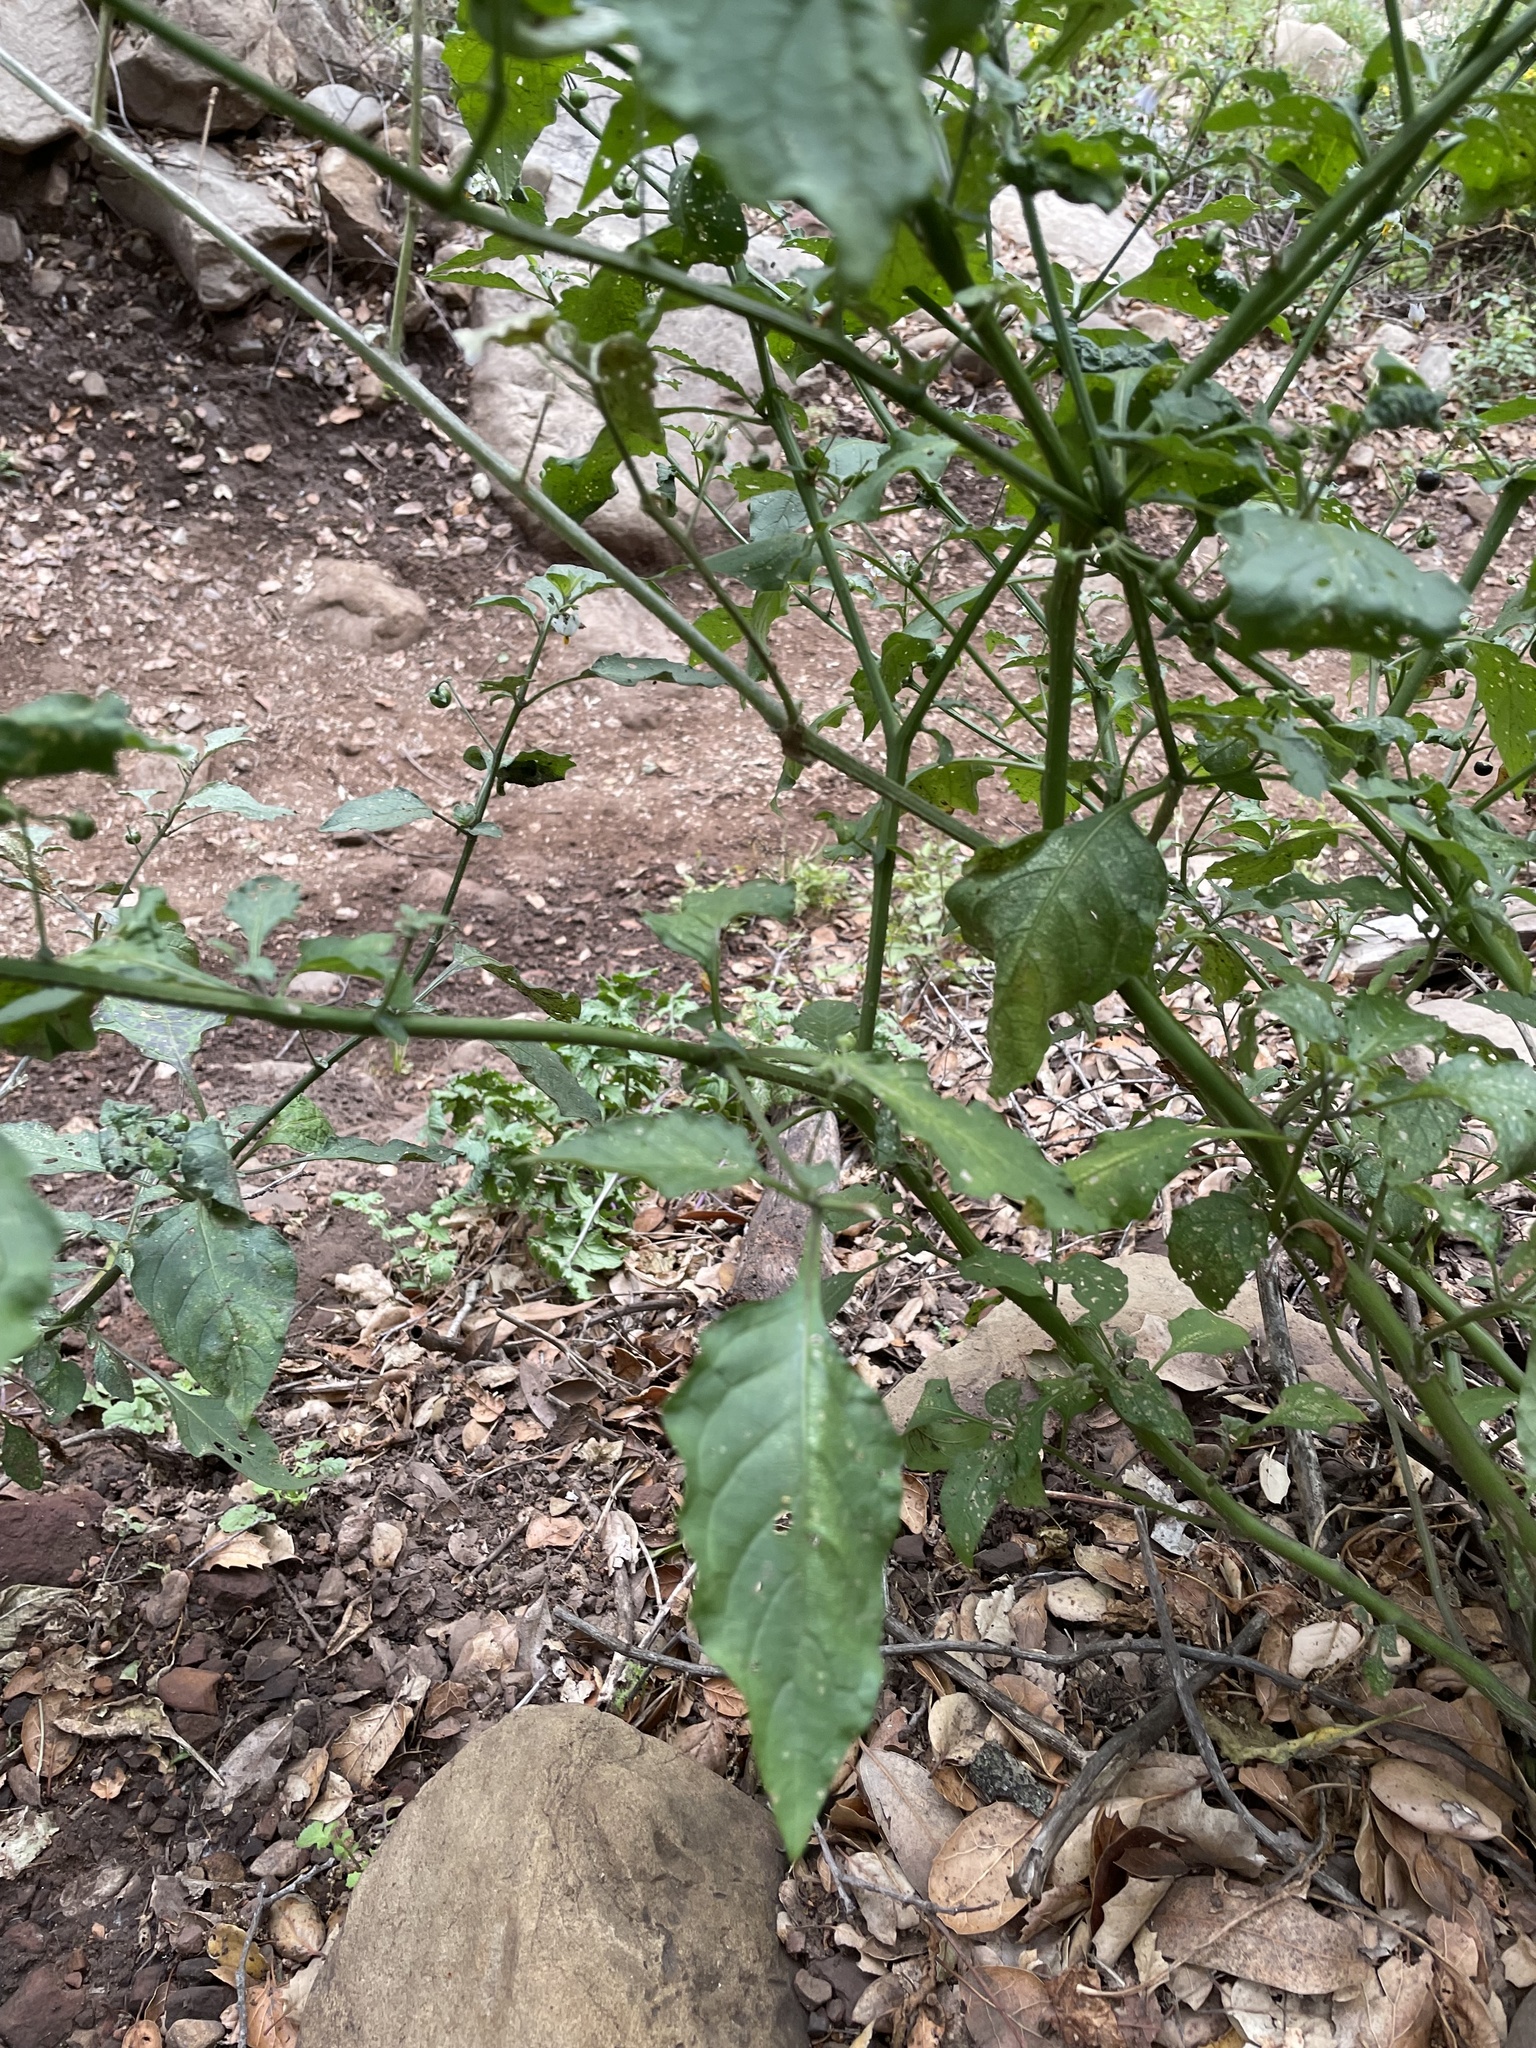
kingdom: Plantae
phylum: Tracheophyta
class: Magnoliopsida
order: Solanales
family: Solanaceae
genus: Solanum
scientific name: Solanum douglasii
